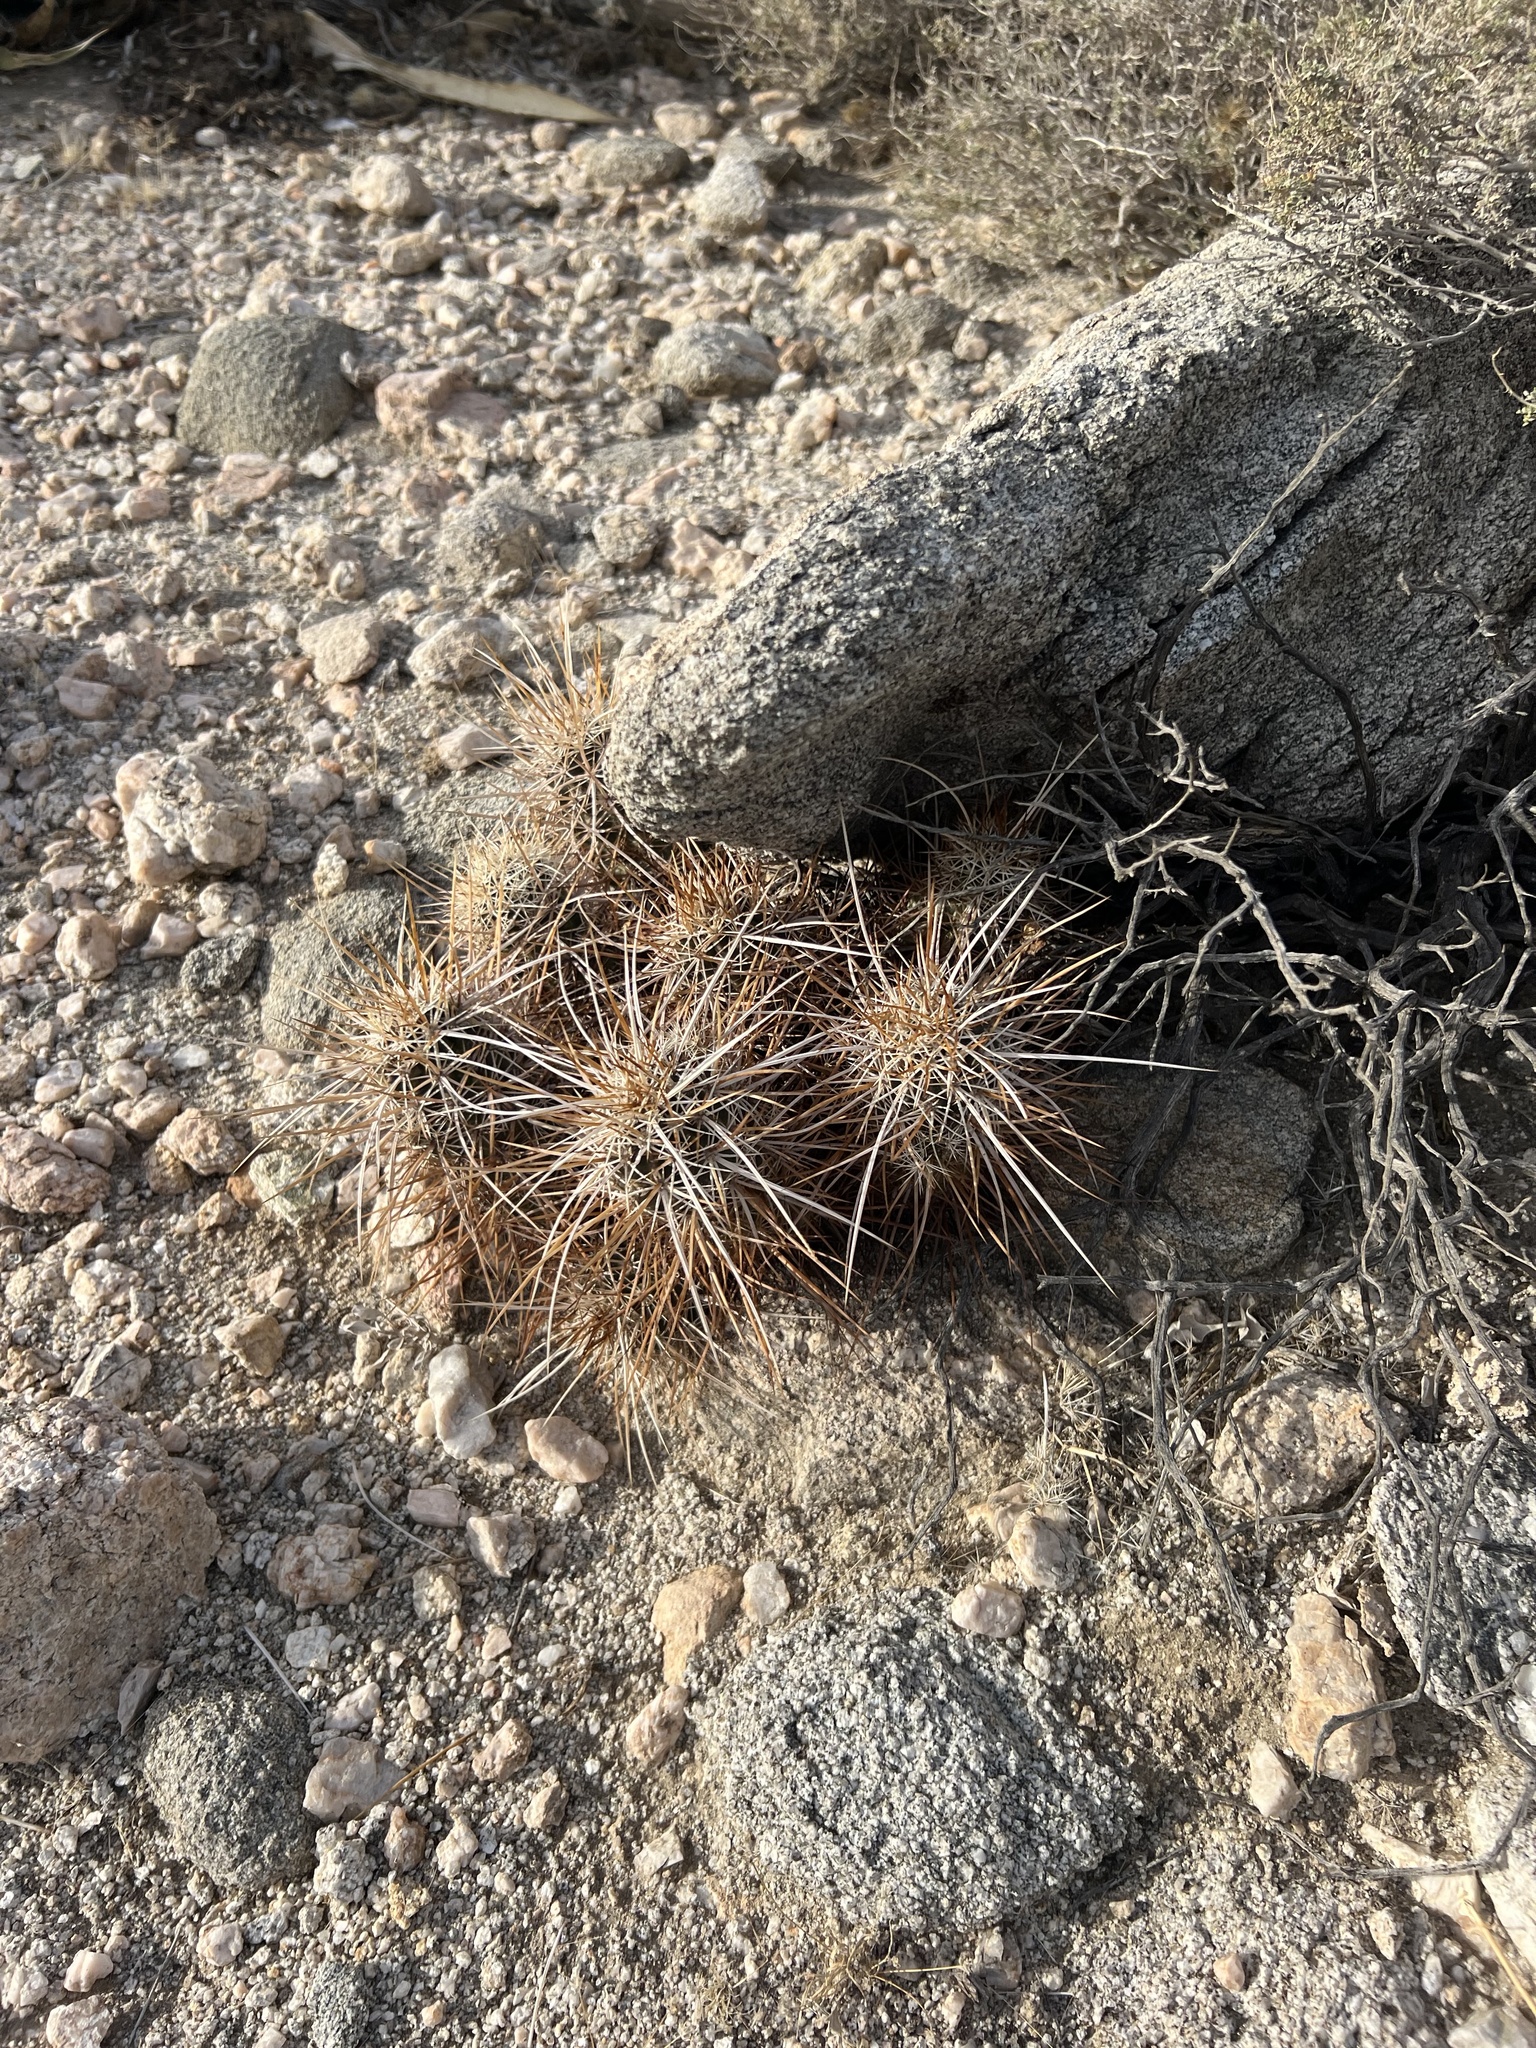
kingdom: Plantae
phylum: Tracheophyta
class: Magnoliopsida
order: Caryophyllales
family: Cactaceae
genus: Echinocereus
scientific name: Echinocereus engelmannii
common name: Engelmann's hedgehog cactus
